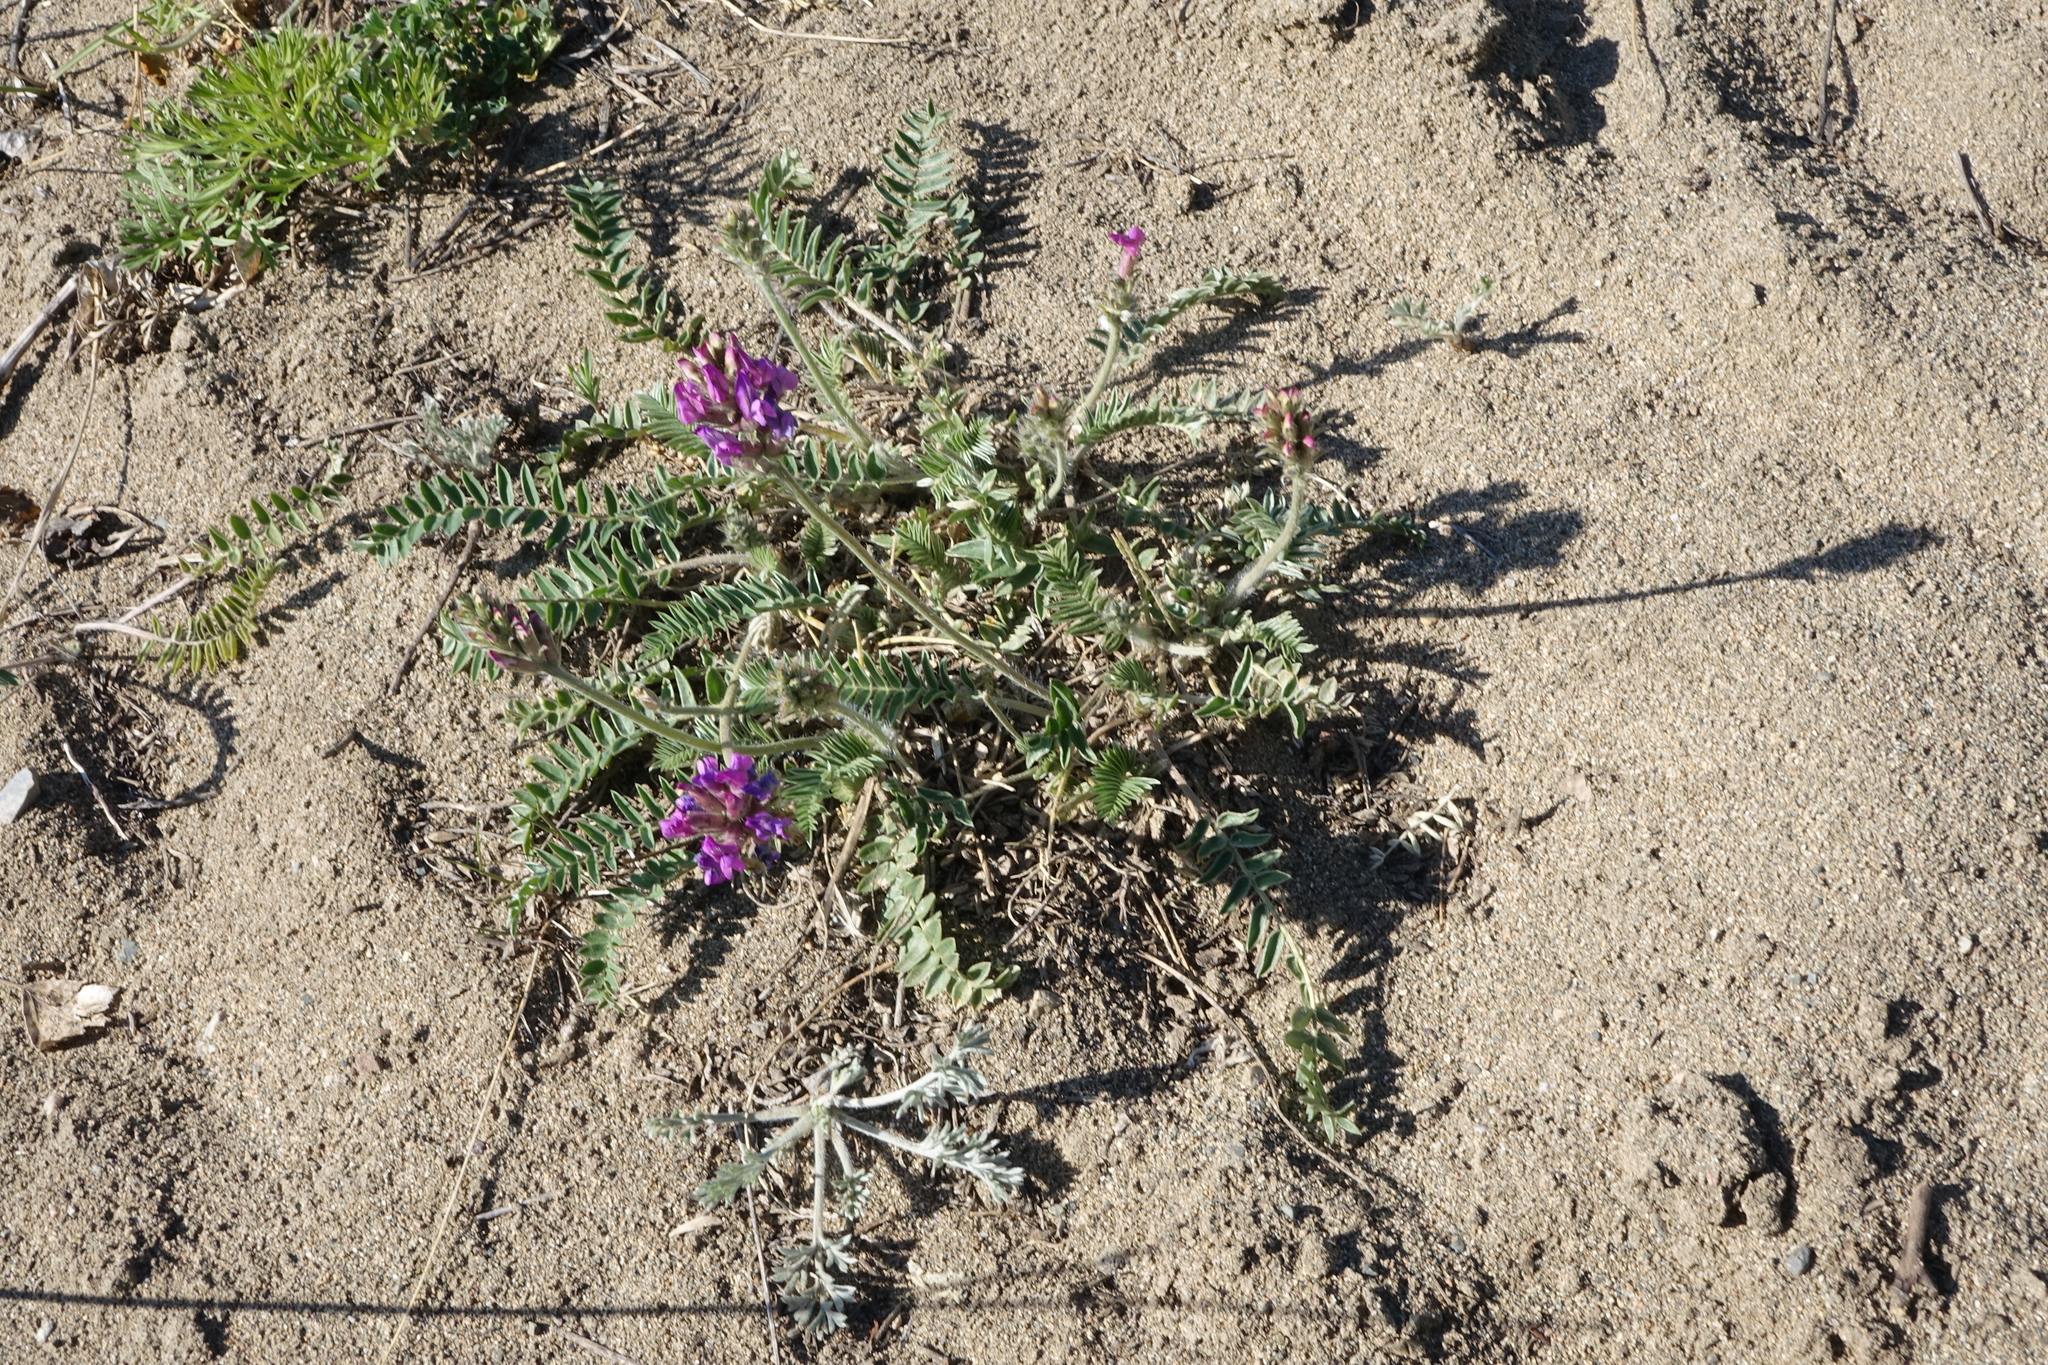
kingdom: Plantae
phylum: Tracheophyta
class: Magnoliopsida
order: Fabales
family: Fabaceae
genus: Oxytropis
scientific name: Oxytropis strobilacea
